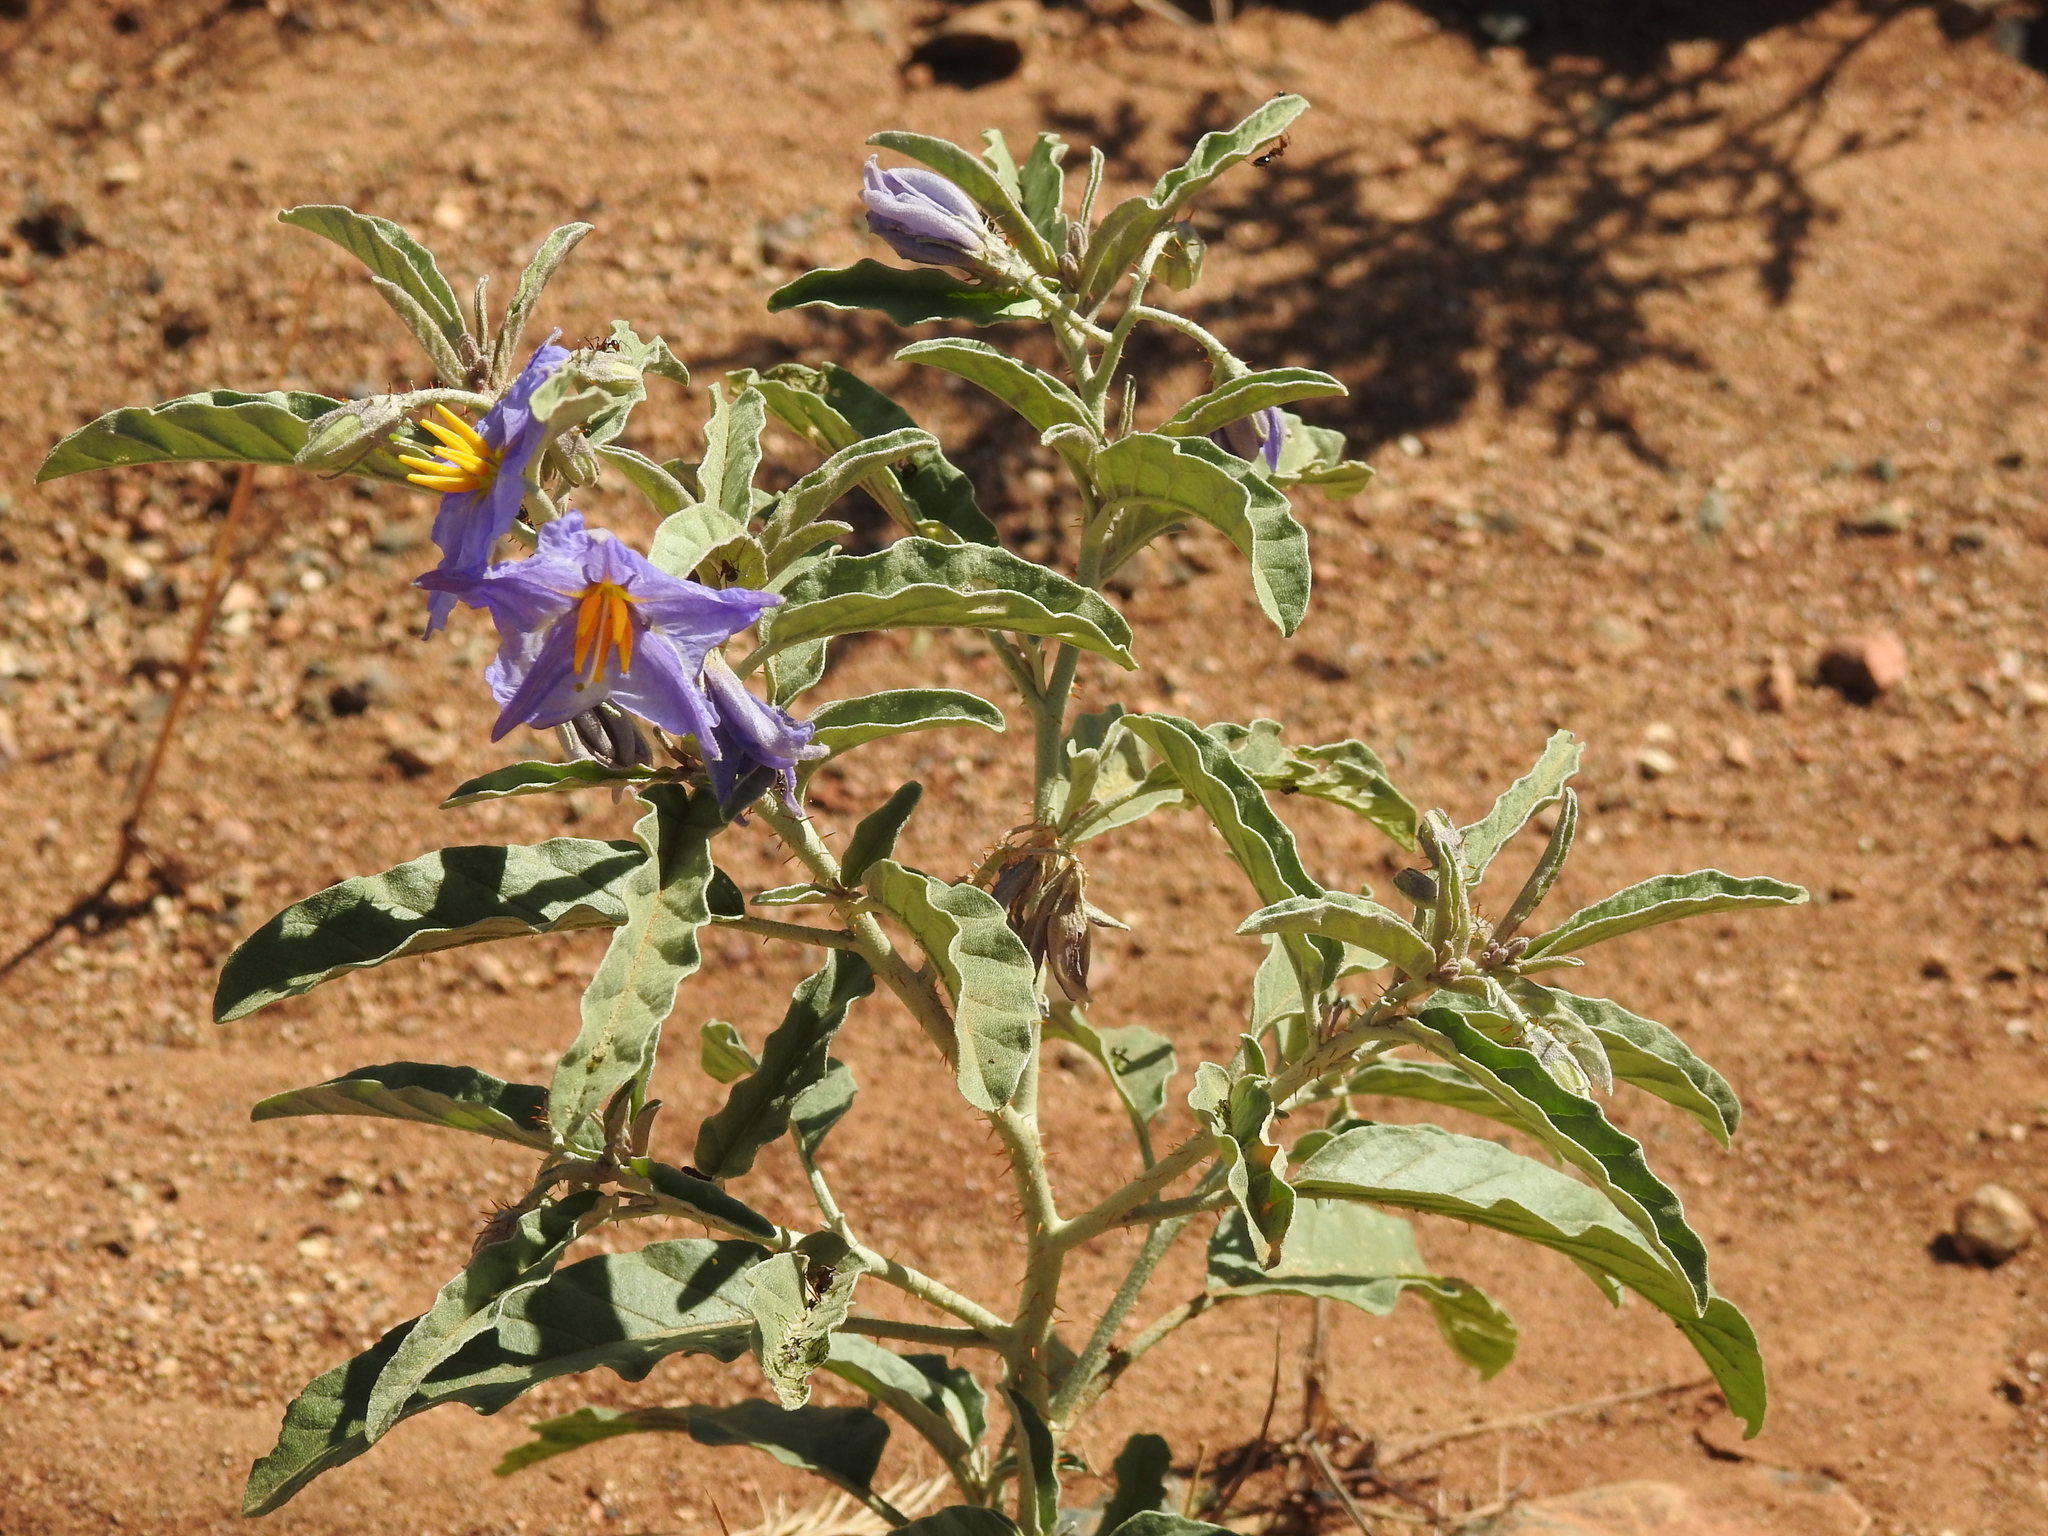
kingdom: Plantae
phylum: Tracheophyta
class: Magnoliopsida
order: Solanales
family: Solanaceae
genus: Solanum
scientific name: Solanum elaeagnifolium
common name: Silverleaf nightshade
